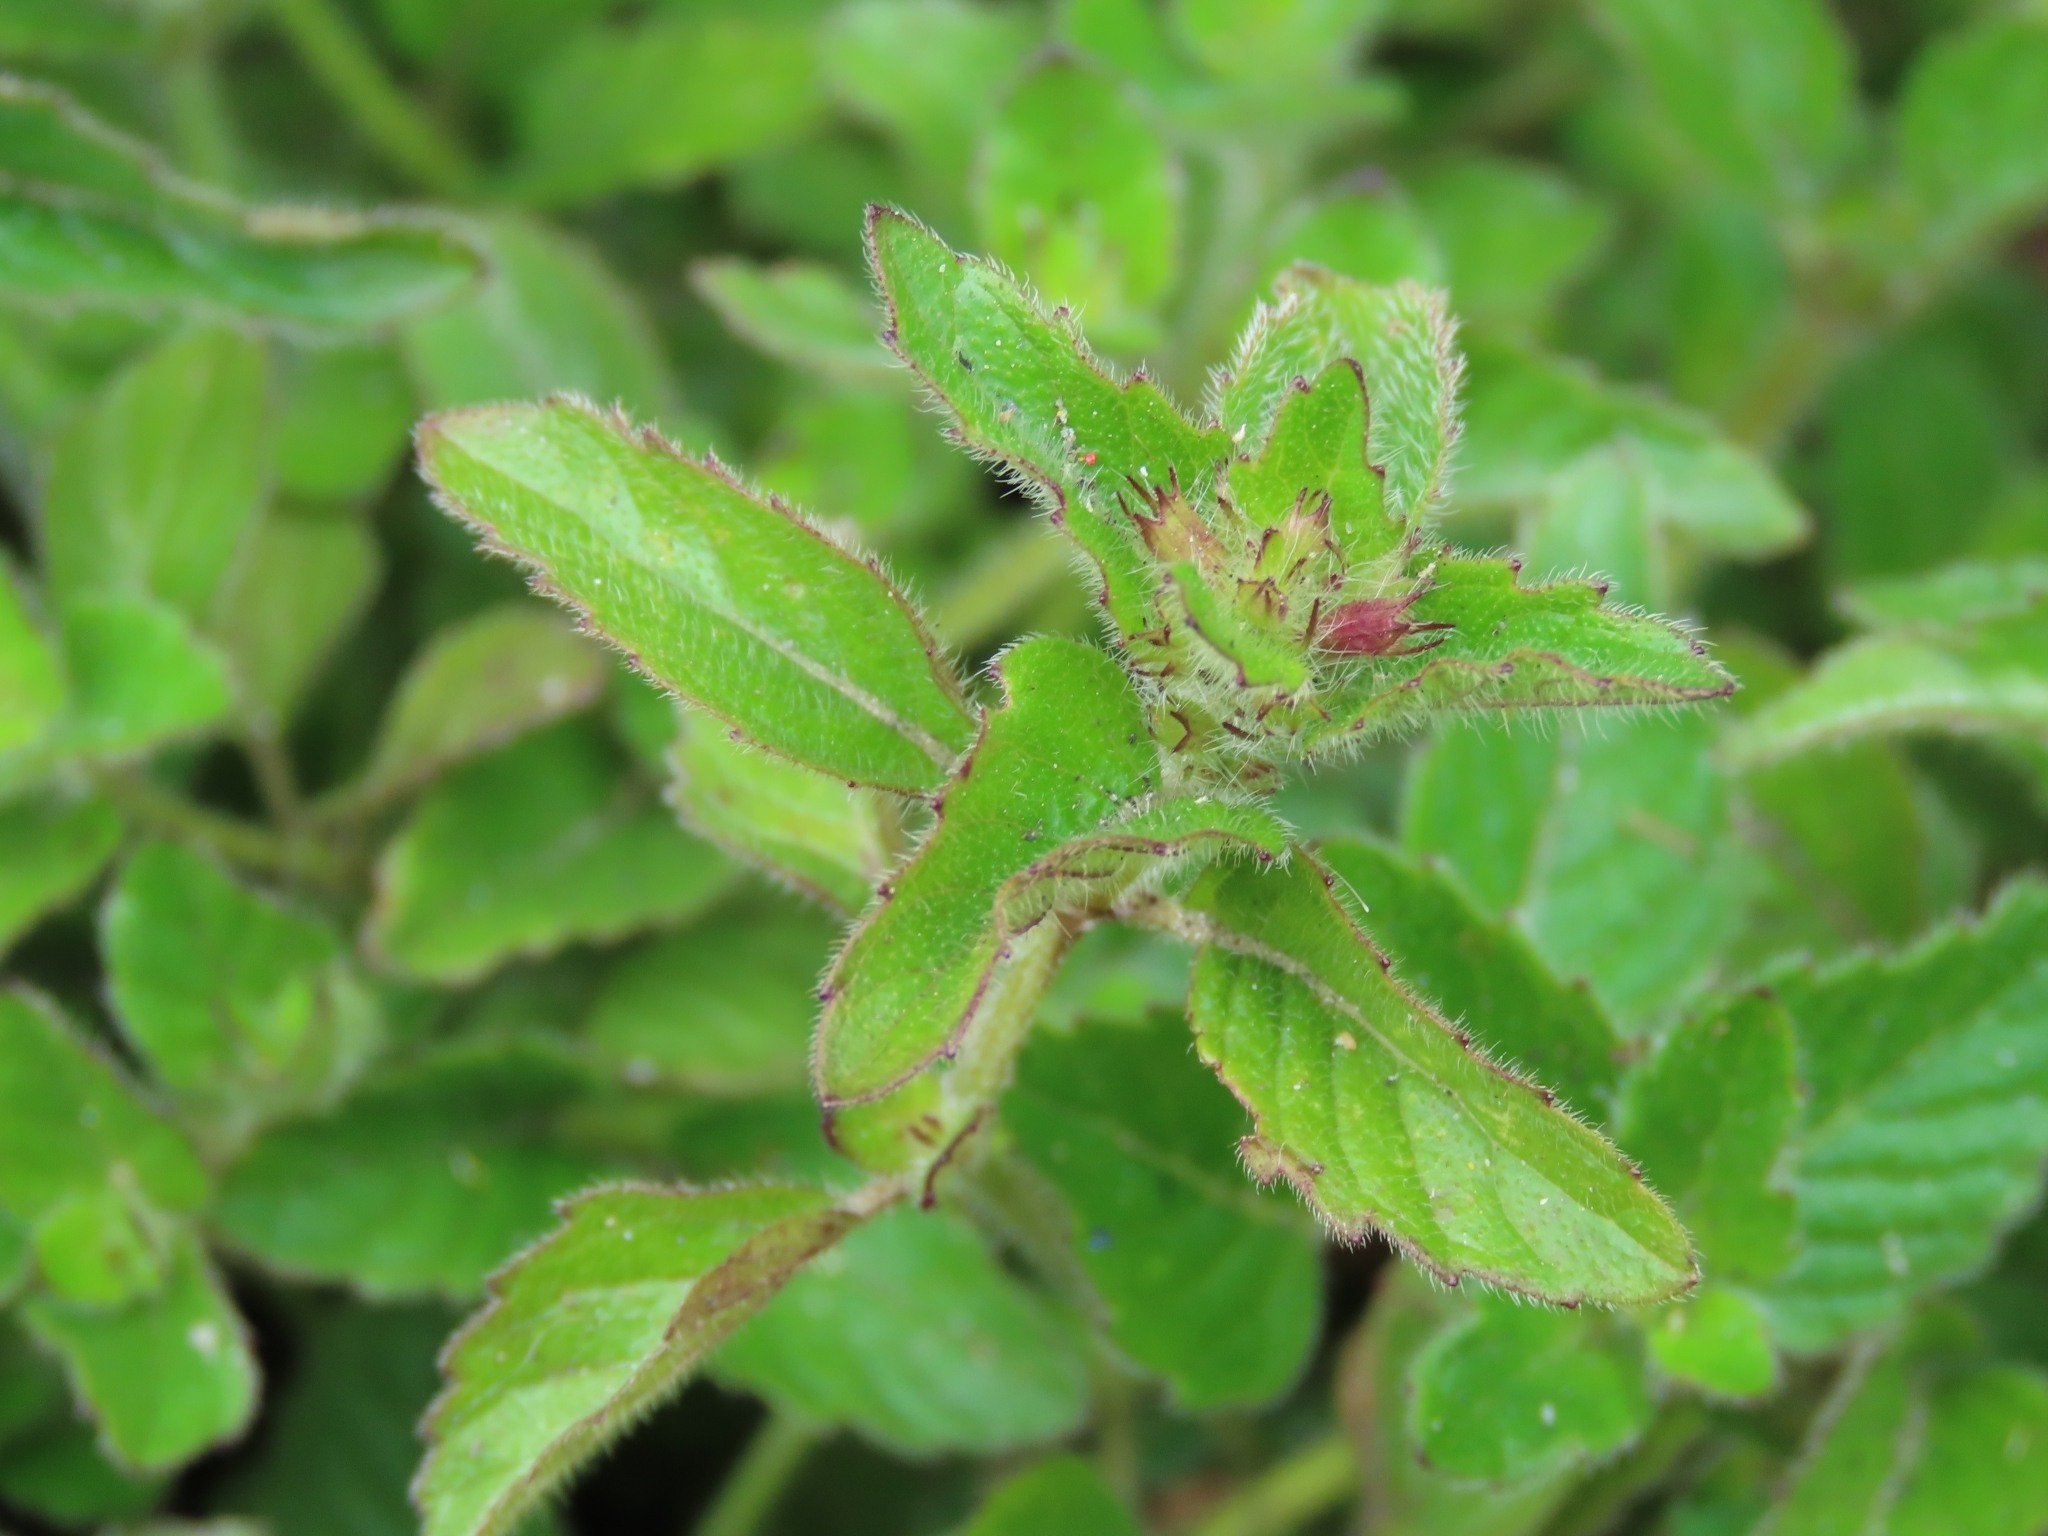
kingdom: Plantae
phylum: Tracheophyta
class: Magnoliopsida
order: Lamiales
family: Lamiaceae
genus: Clinopodium
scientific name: Clinopodium chinense
